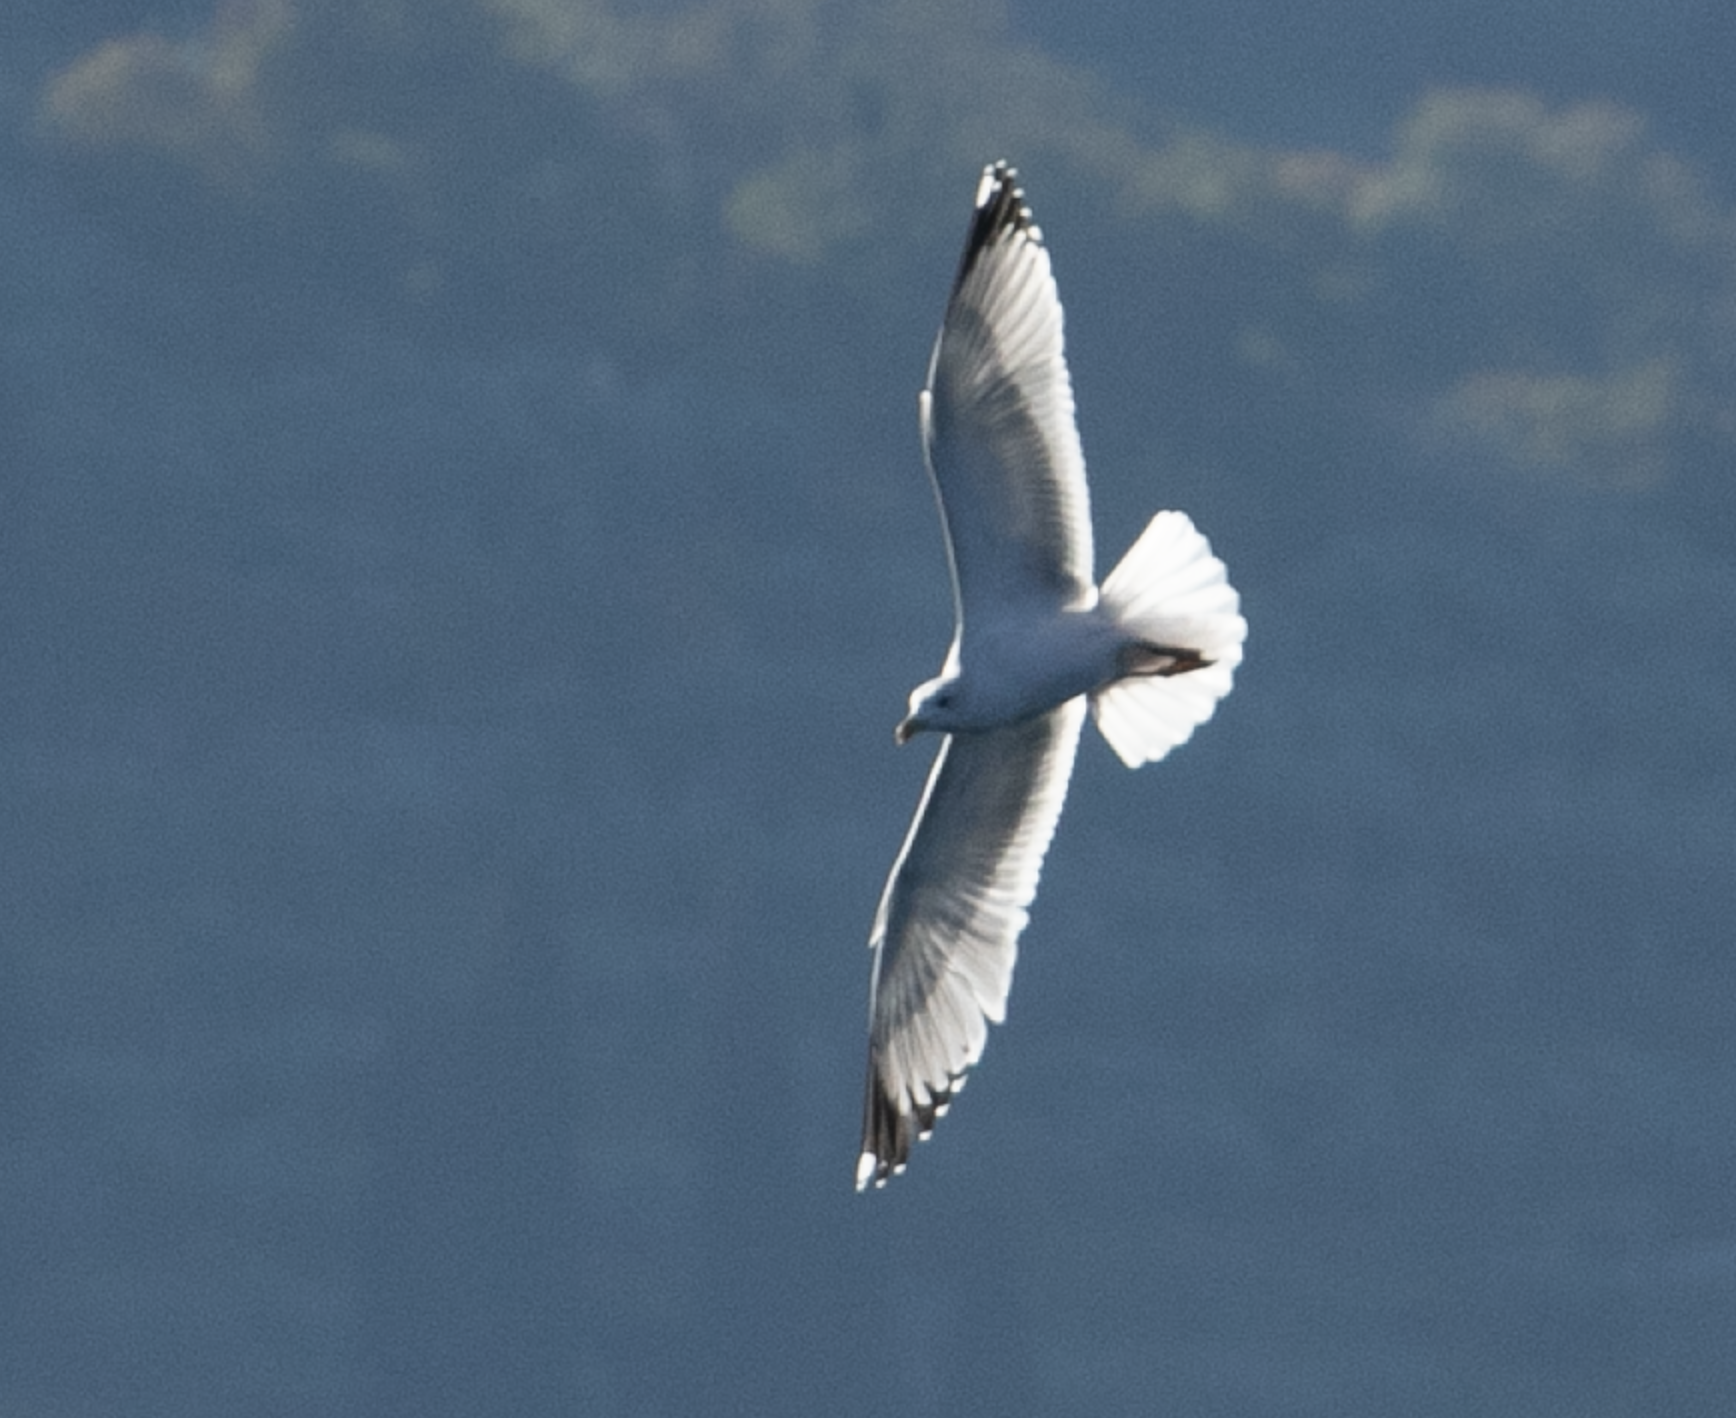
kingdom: Animalia
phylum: Chordata
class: Aves
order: Charadriiformes
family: Laridae
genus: Larus
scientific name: Larus michahellis
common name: Yellow-legged gull
